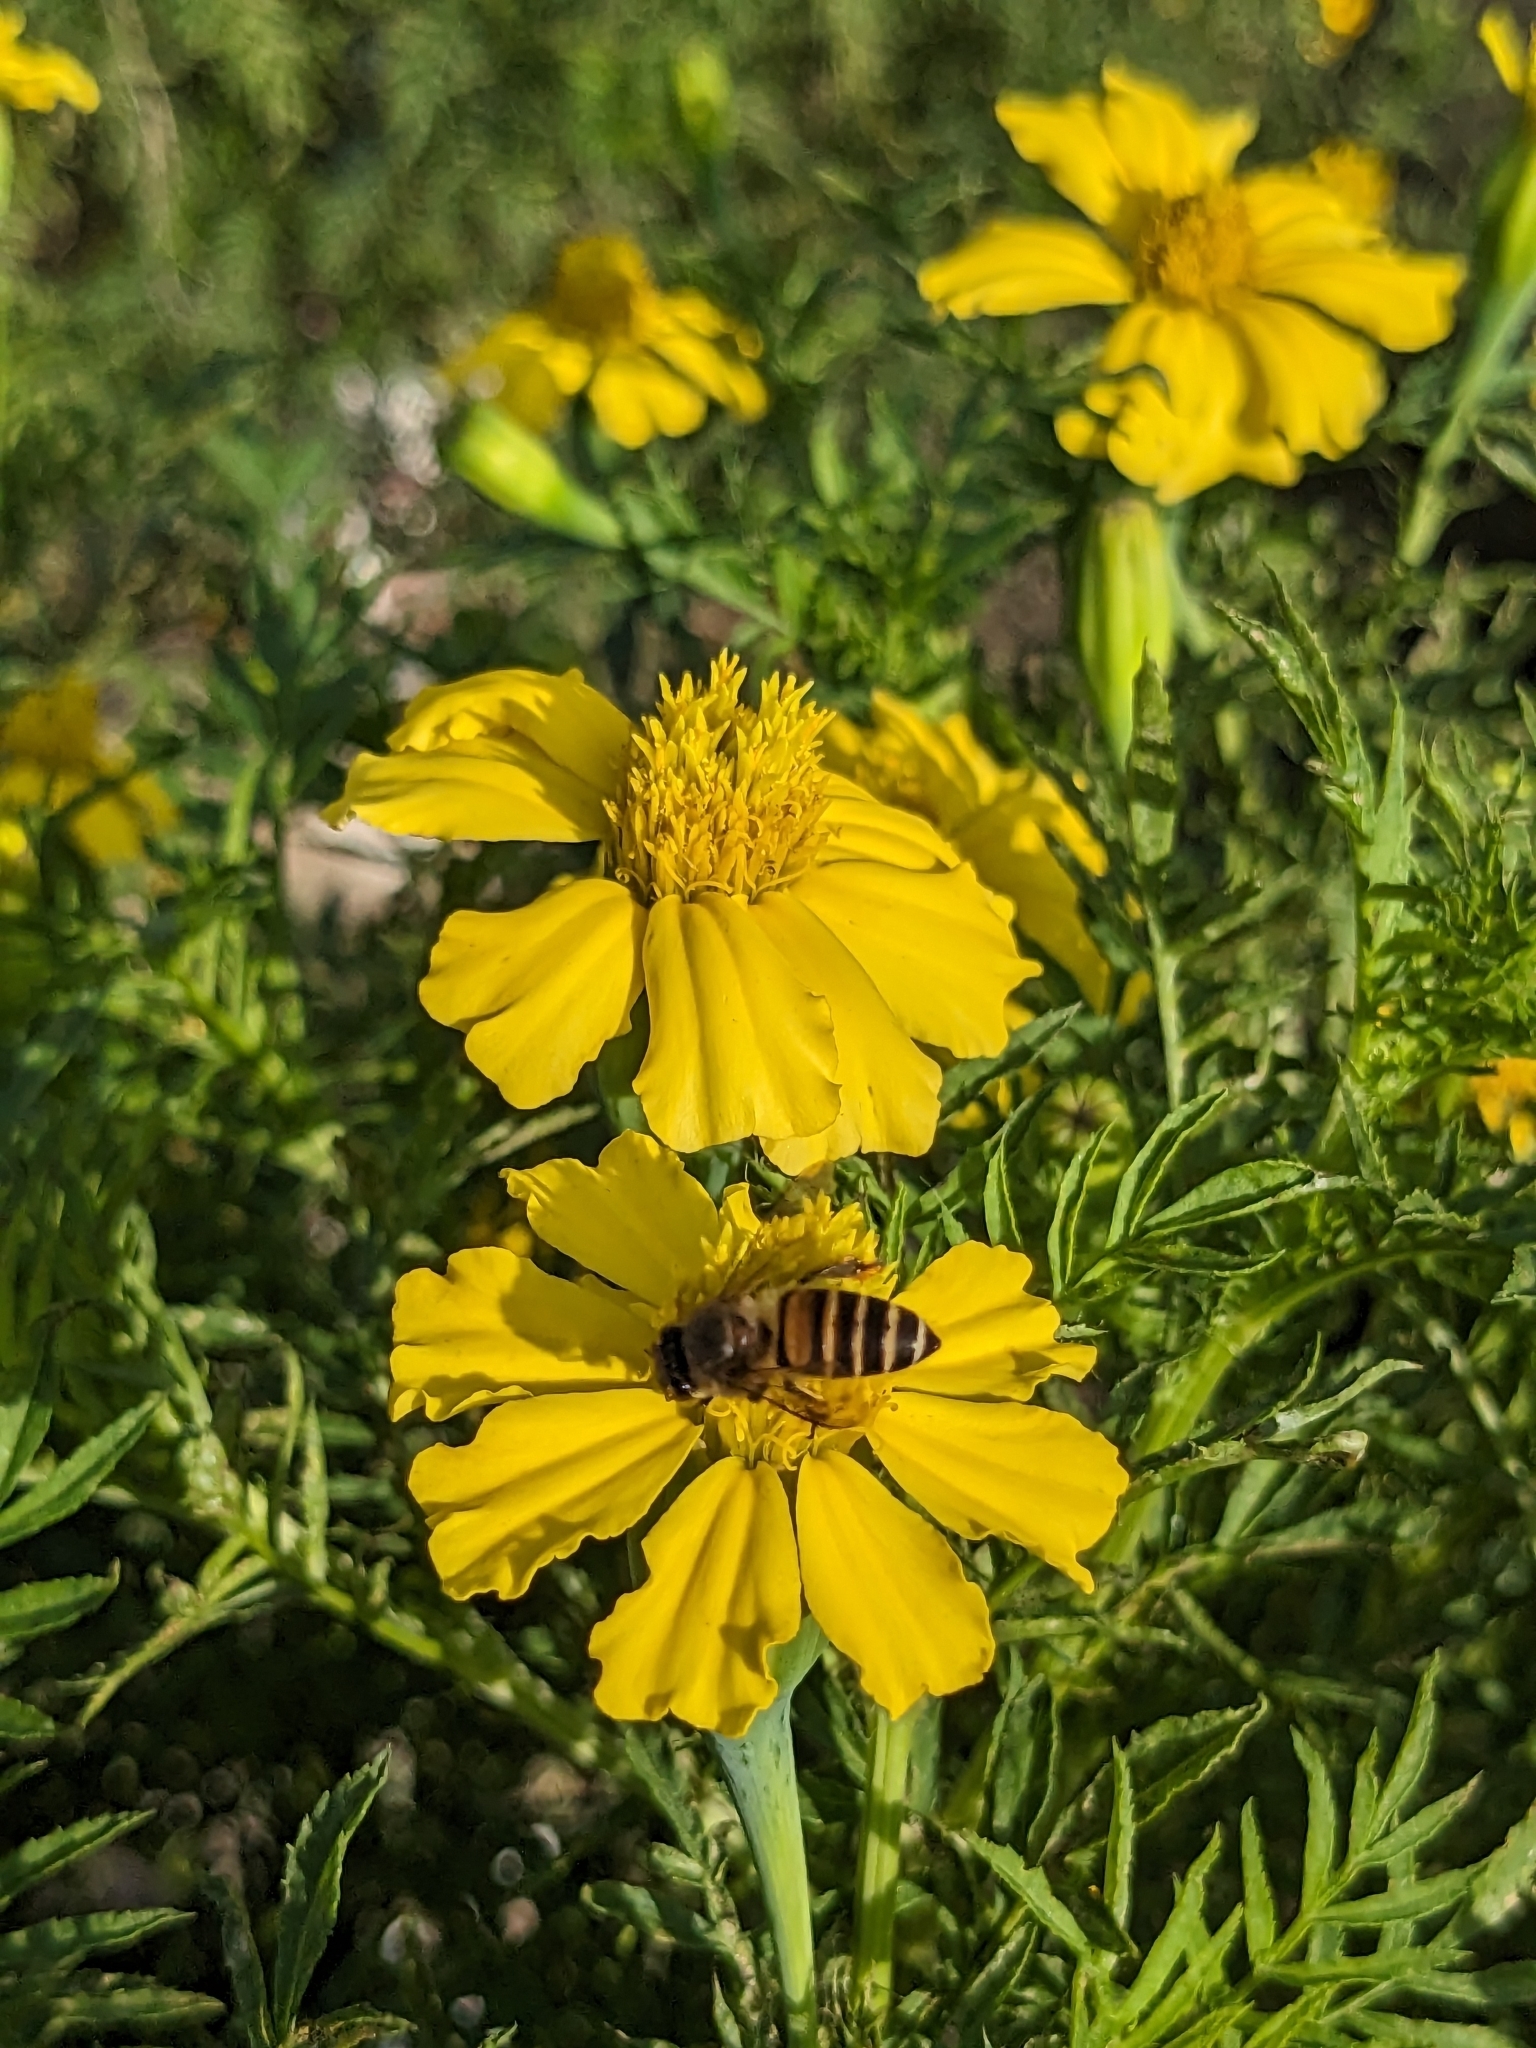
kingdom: Animalia
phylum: Arthropoda
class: Insecta
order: Hymenoptera
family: Apidae
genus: Apis
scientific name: Apis cerana
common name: Honey bee
